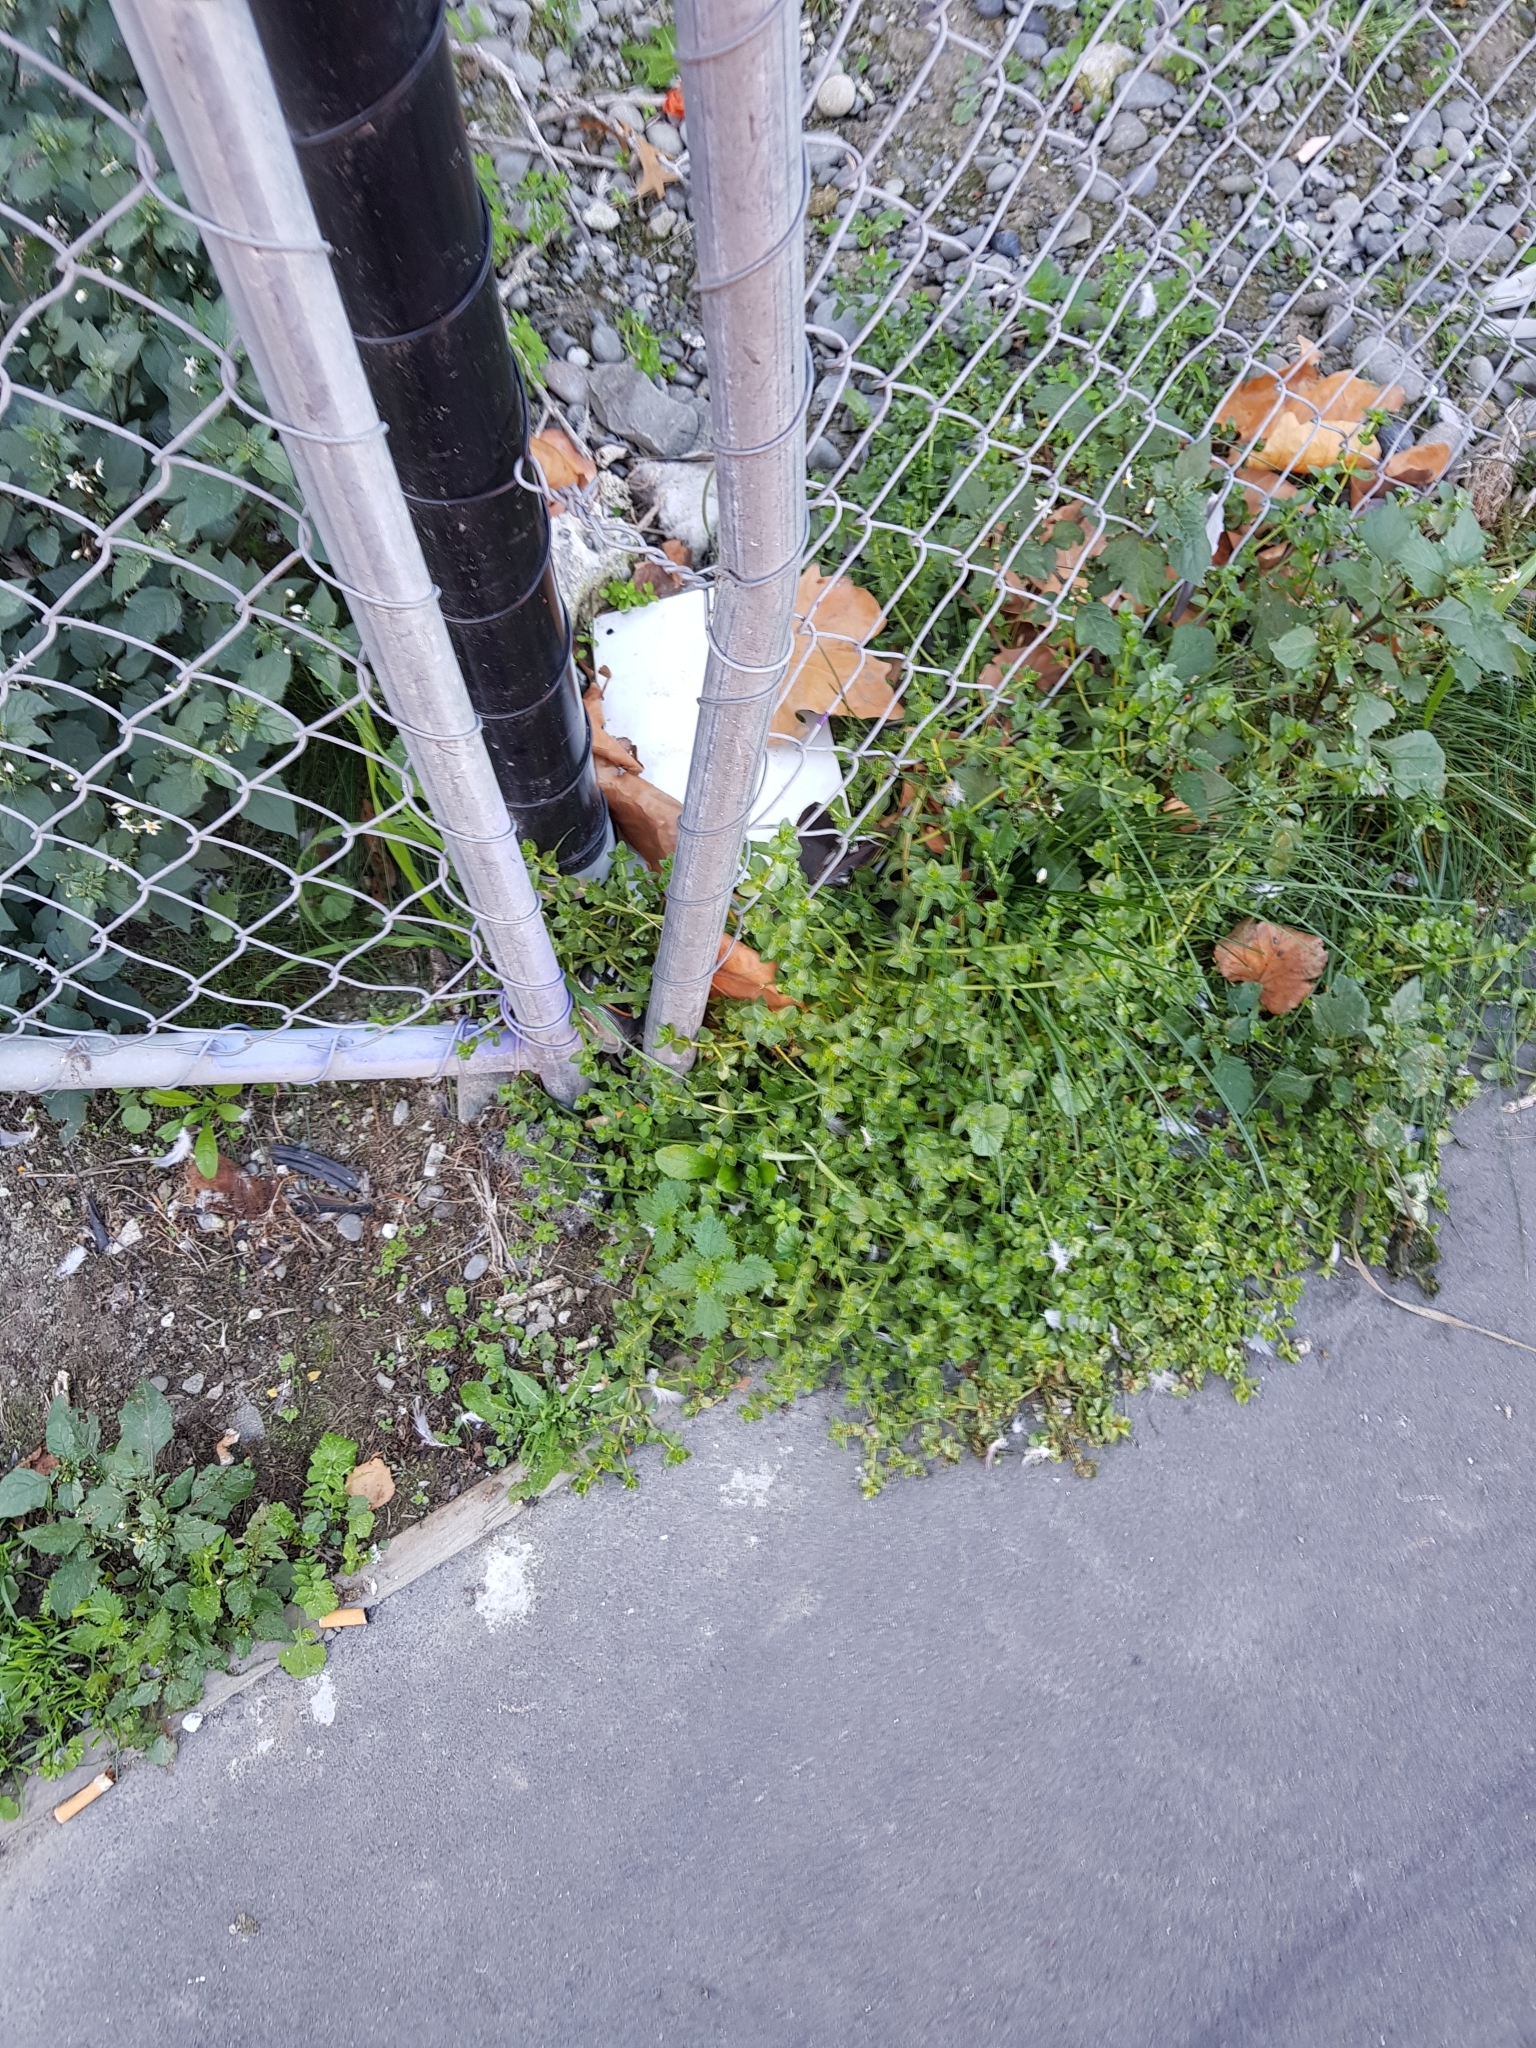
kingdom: Plantae
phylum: Tracheophyta
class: Magnoliopsida
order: Rosales
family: Urticaceae
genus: Urtica
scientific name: Urtica urens
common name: Dwarf nettle
